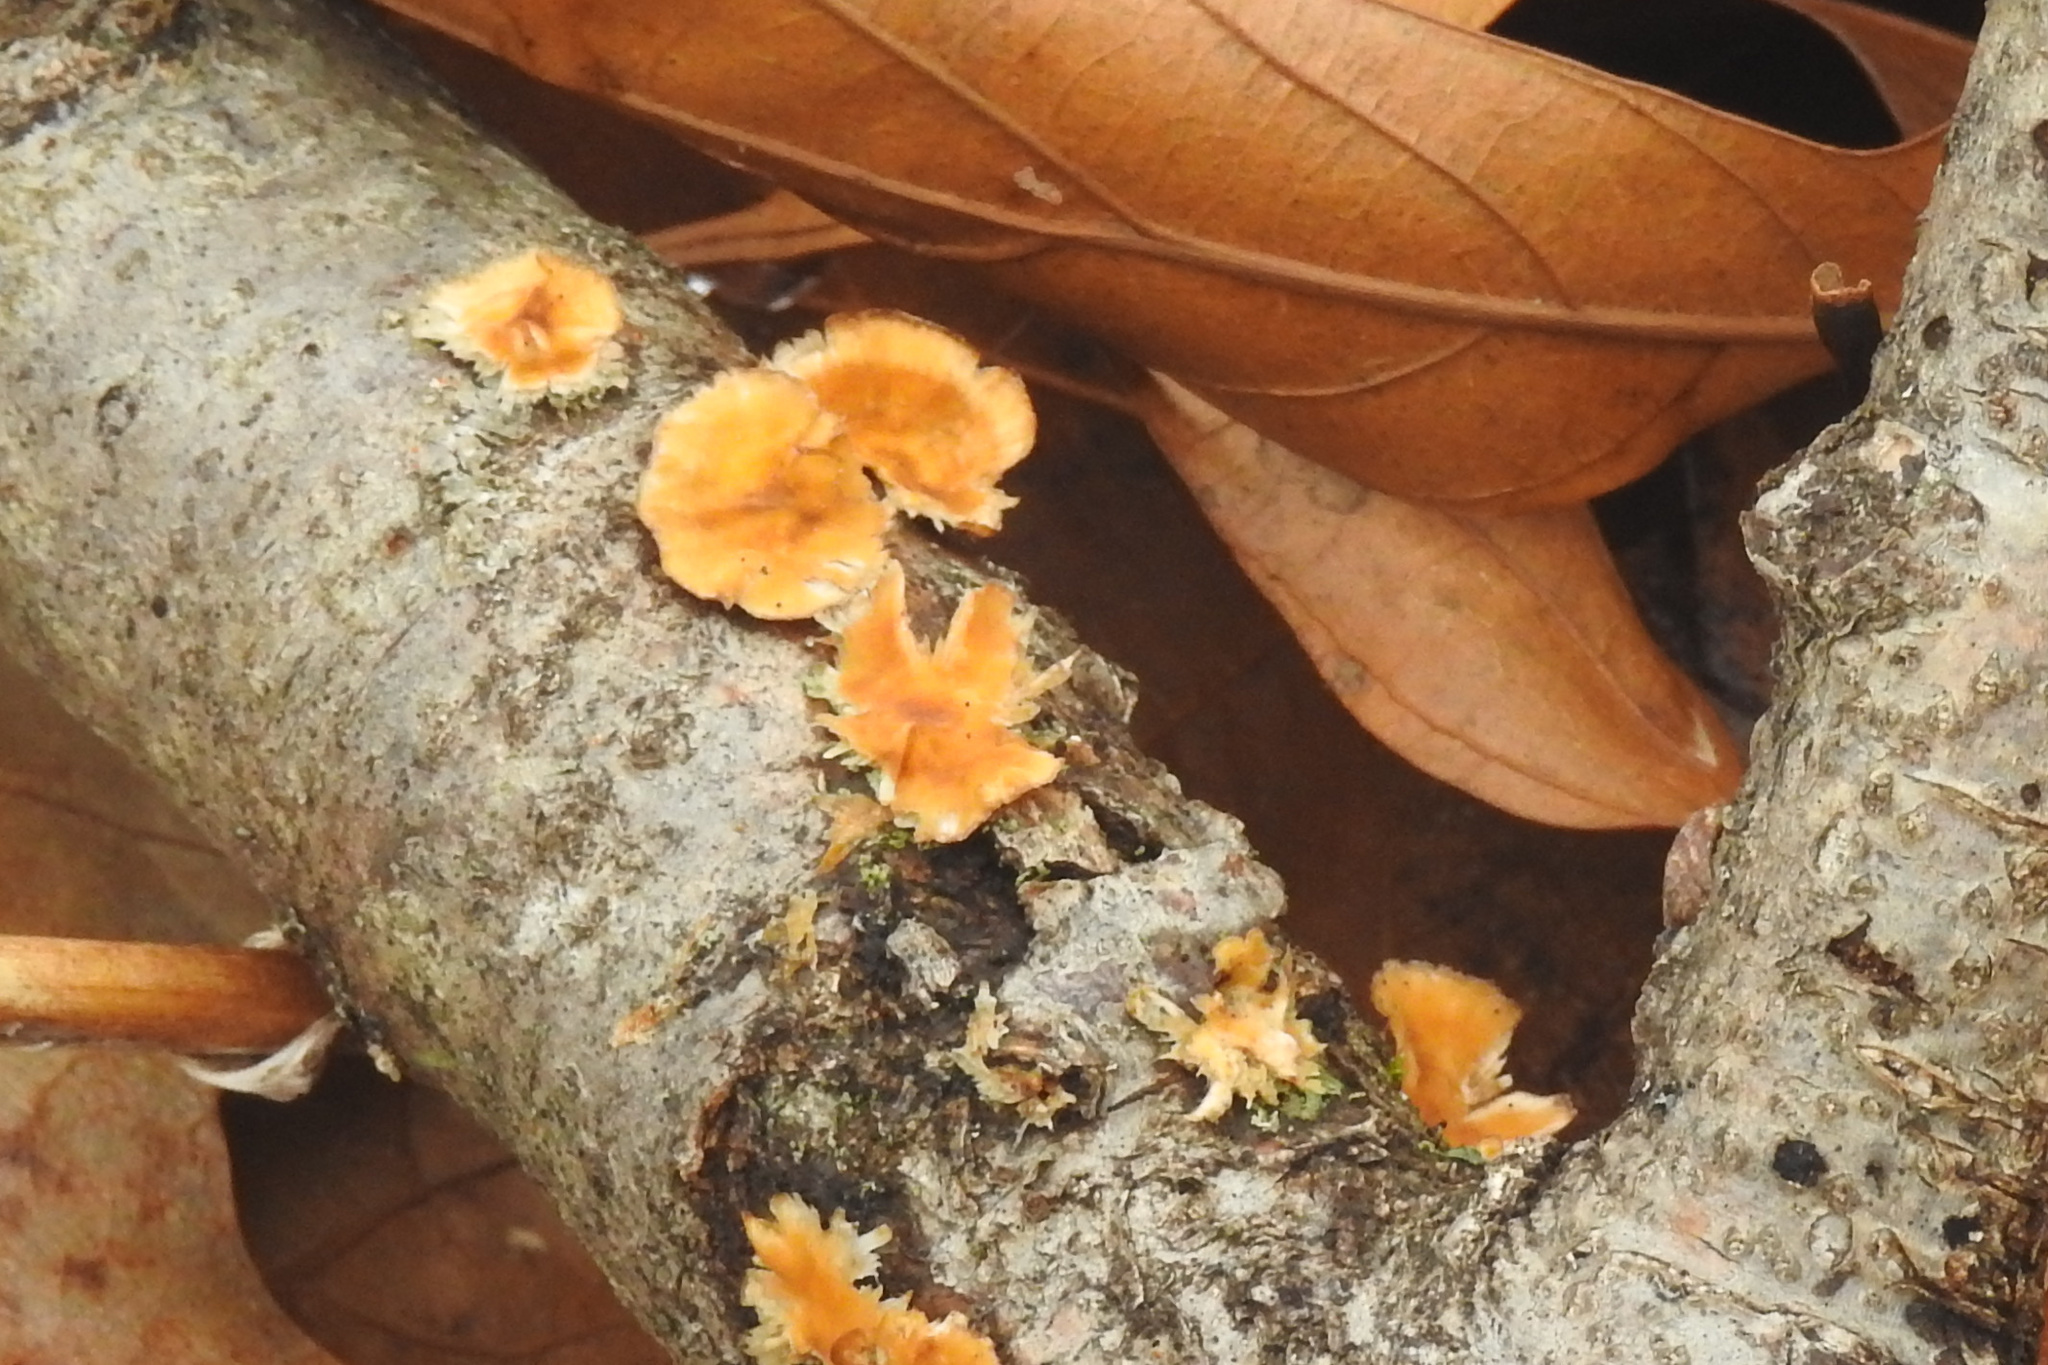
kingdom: Fungi
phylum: Basidiomycota
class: Agaricomycetes
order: Russulales
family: Stereaceae
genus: Stereum
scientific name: Stereum complicatum
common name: Crowded parchment
